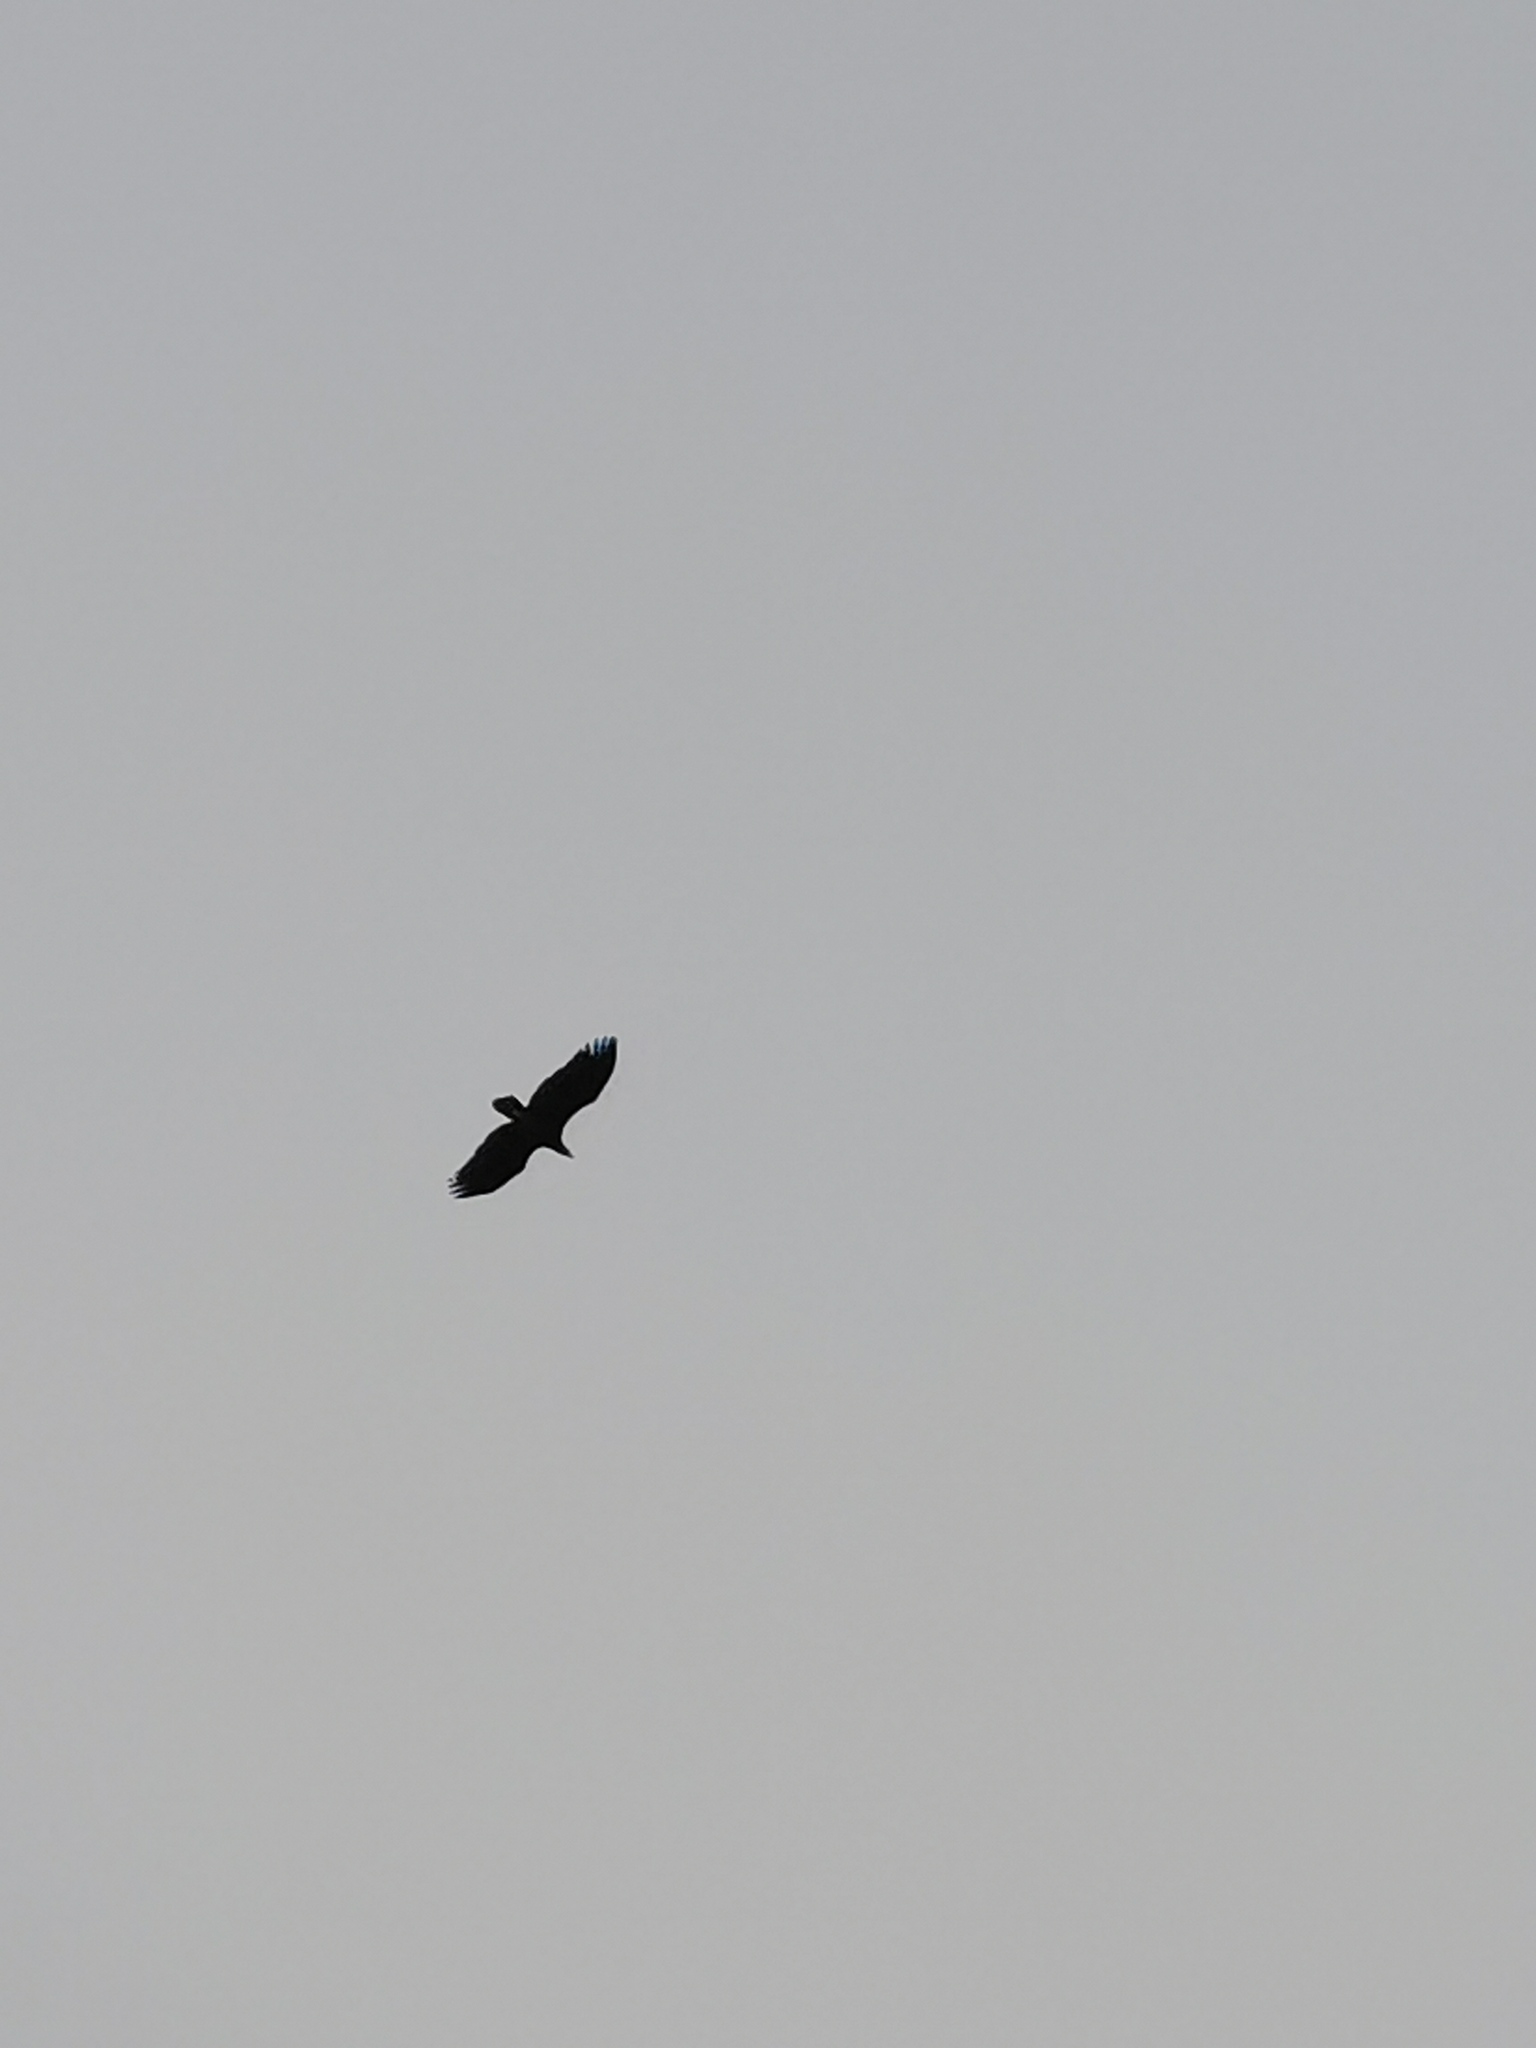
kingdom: Animalia
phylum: Chordata
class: Aves
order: Accipitriformes
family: Accipitridae
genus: Haliaeetus
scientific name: Haliaeetus albicilla
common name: White-tailed eagle
